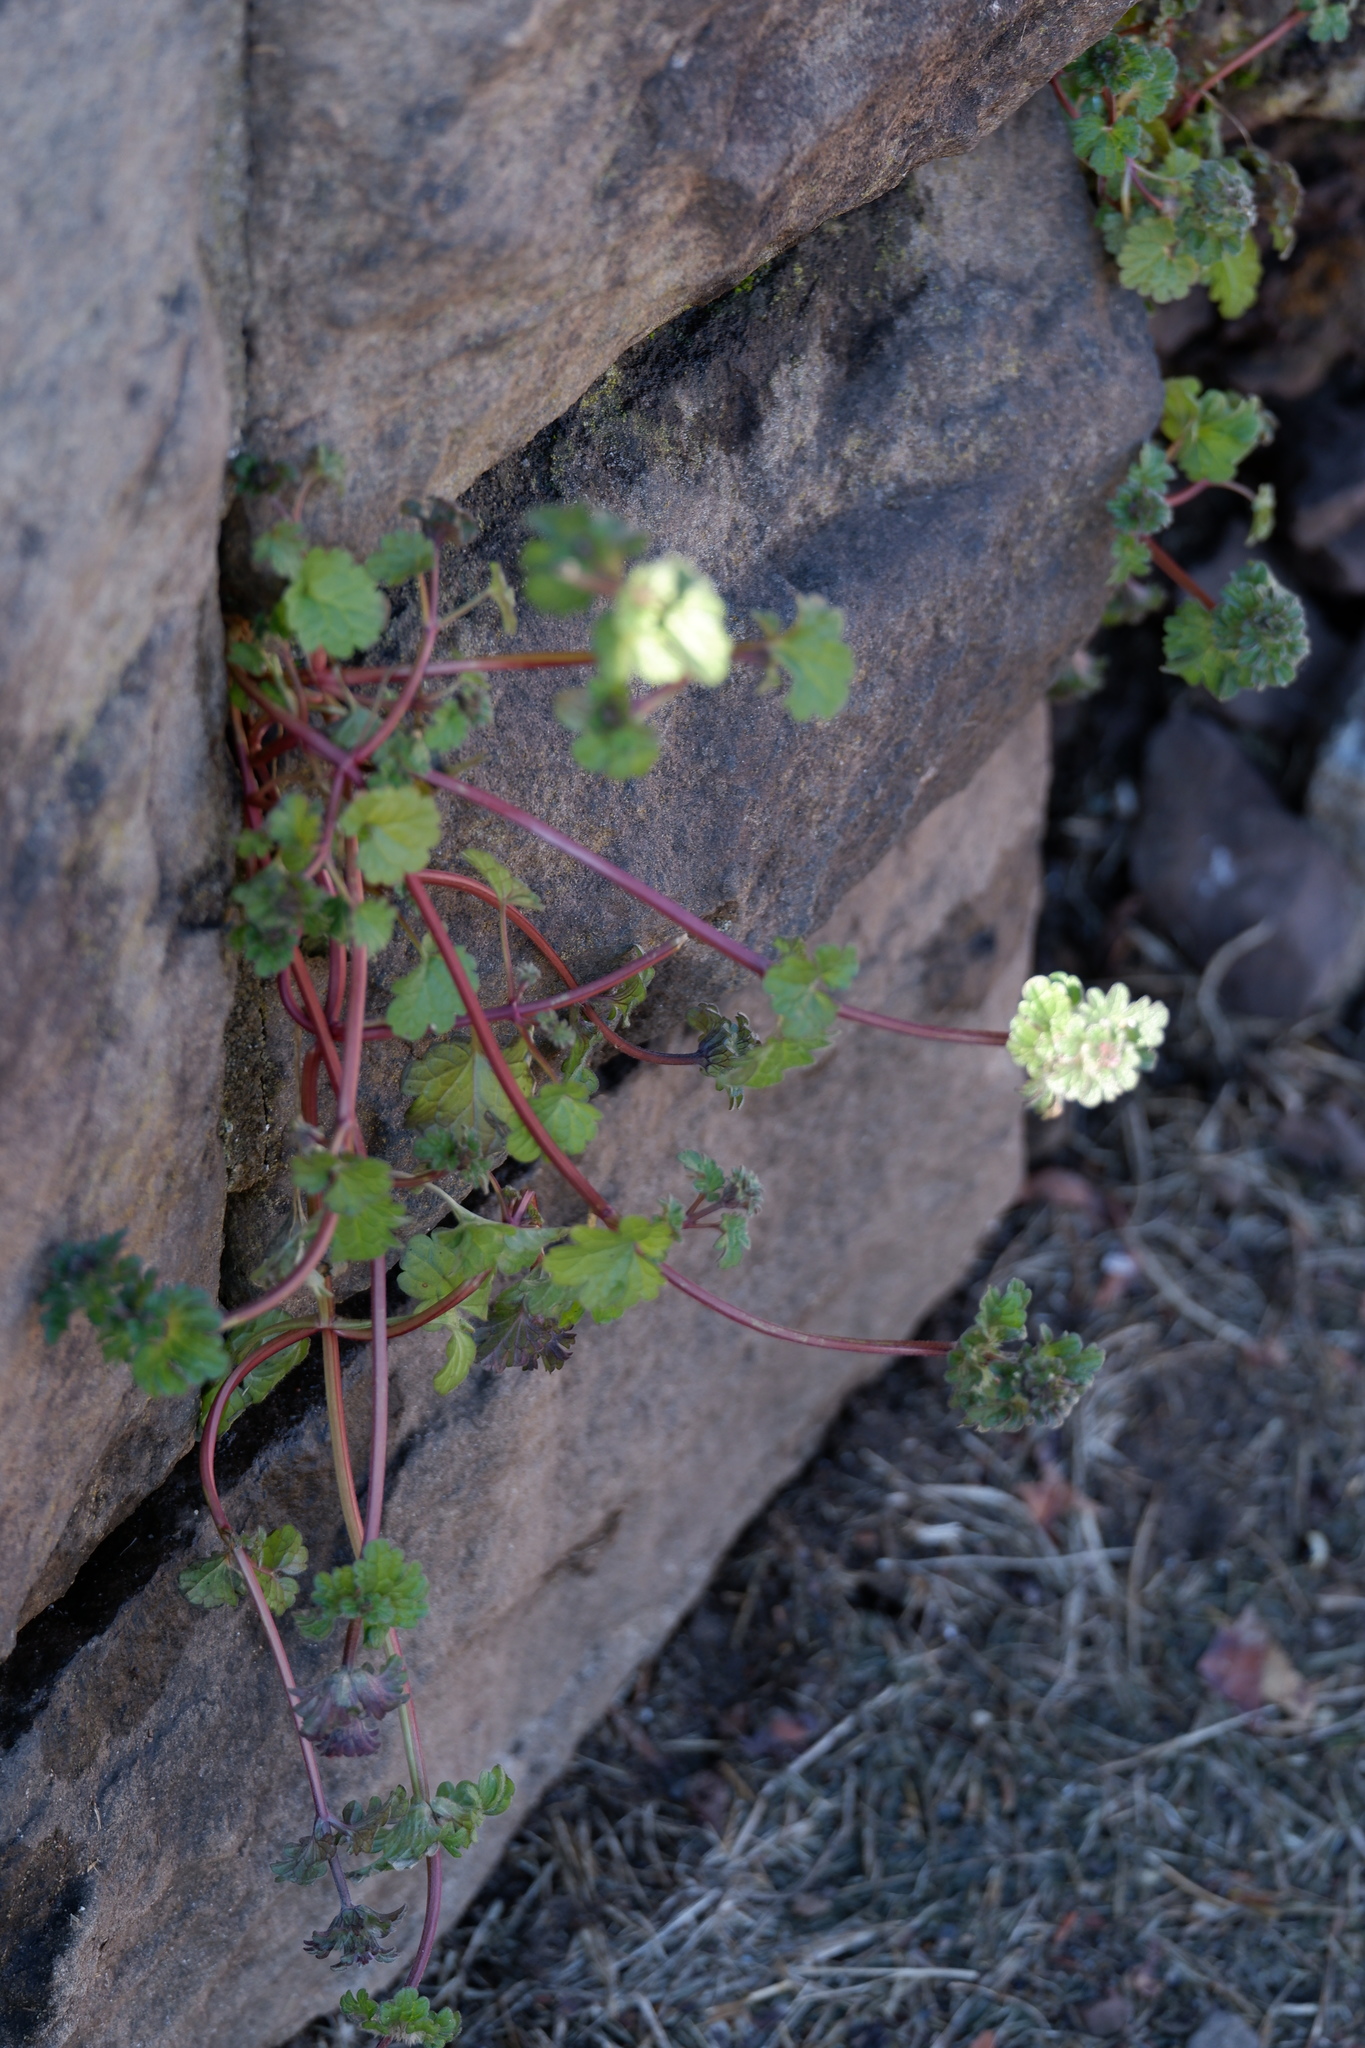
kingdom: Plantae
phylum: Tracheophyta
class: Magnoliopsida
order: Lamiales
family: Lamiaceae
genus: Lamium
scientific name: Lamium amplexicaule
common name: Henbit dead-nettle
